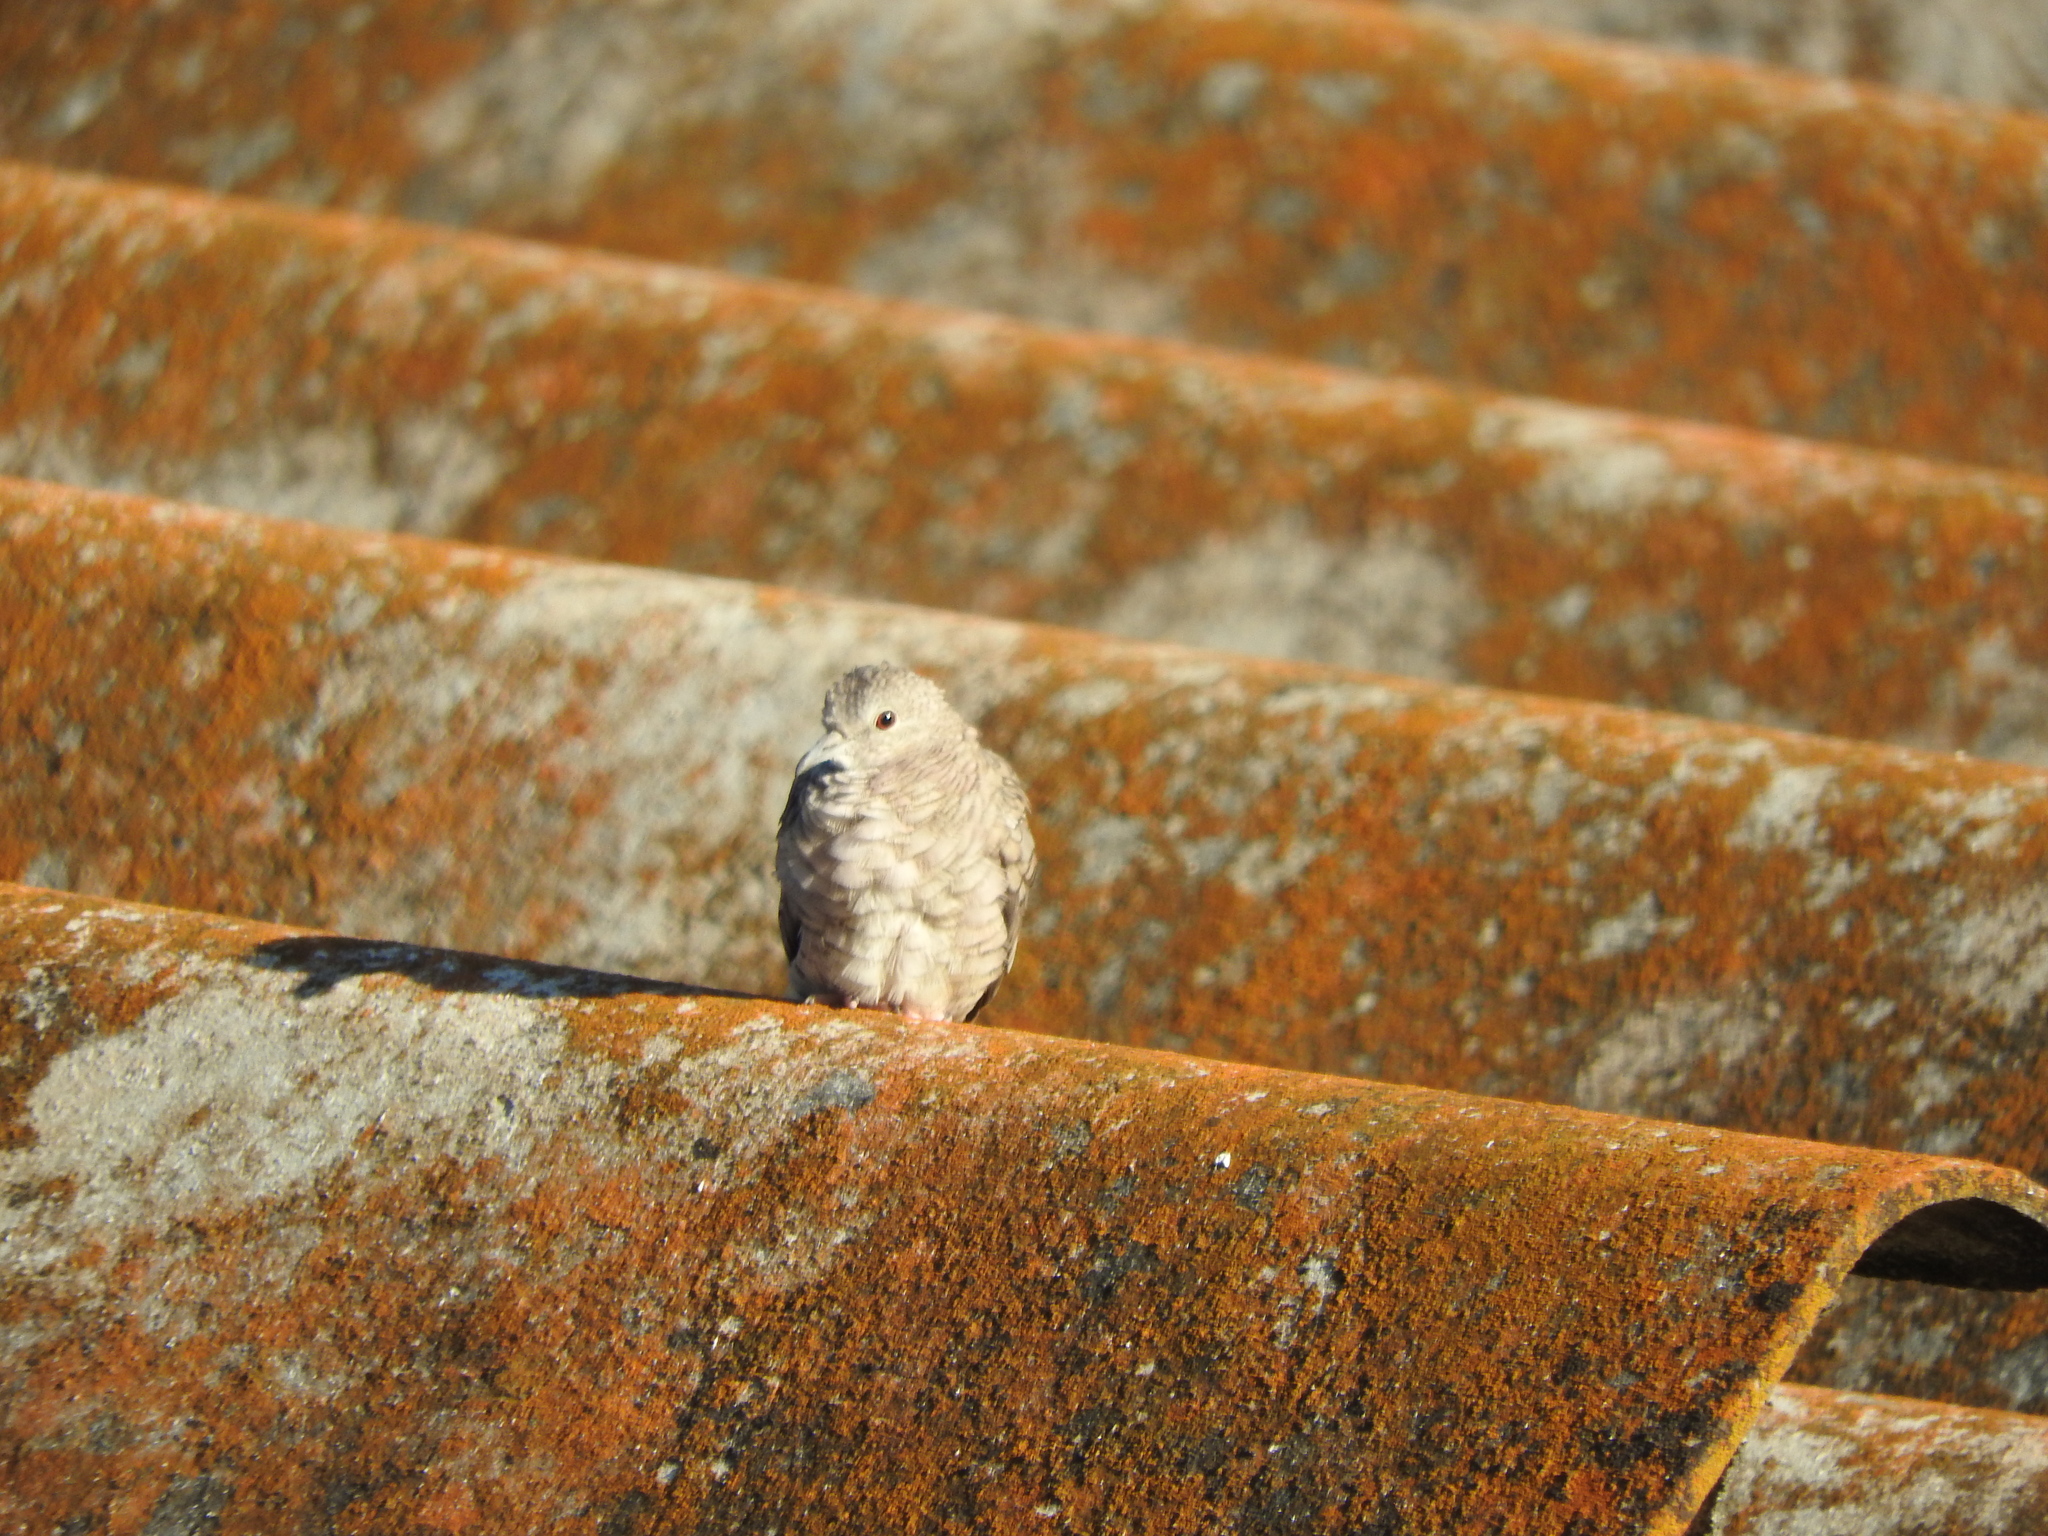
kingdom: Animalia
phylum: Chordata
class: Aves
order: Columbiformes
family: Columbidae
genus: Columbina
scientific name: Columbina inca
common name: Inca dove
